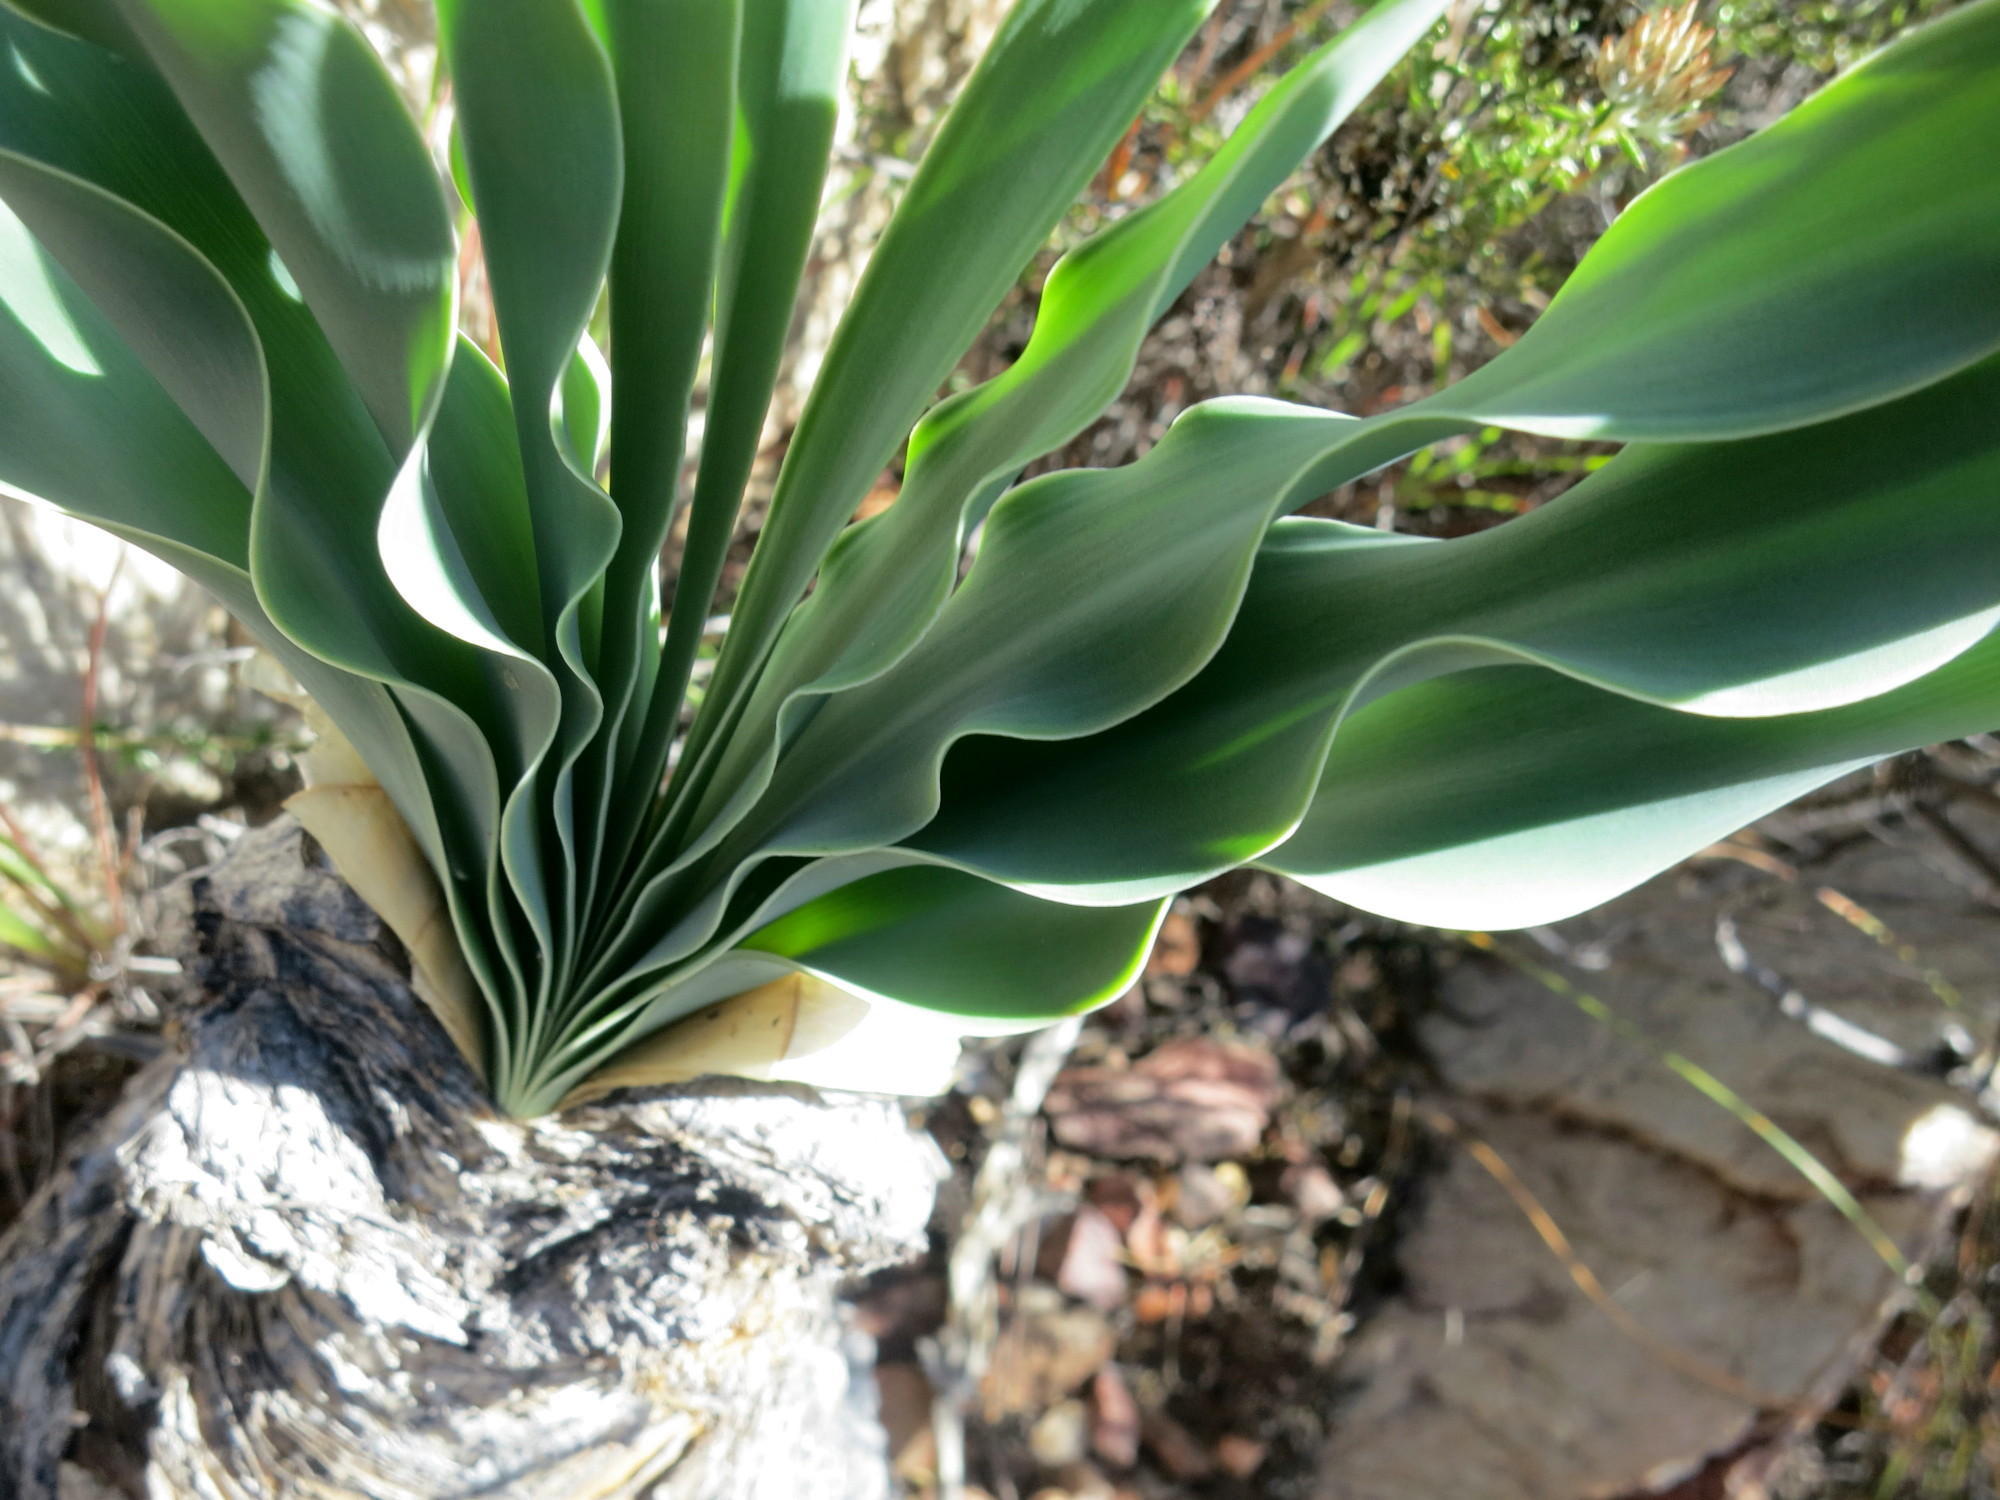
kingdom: Plantae
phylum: Tracheophyta
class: Liliopsida
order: Asparagales
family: Amaryllidaceae
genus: Boophone
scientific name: Boophone disticha
